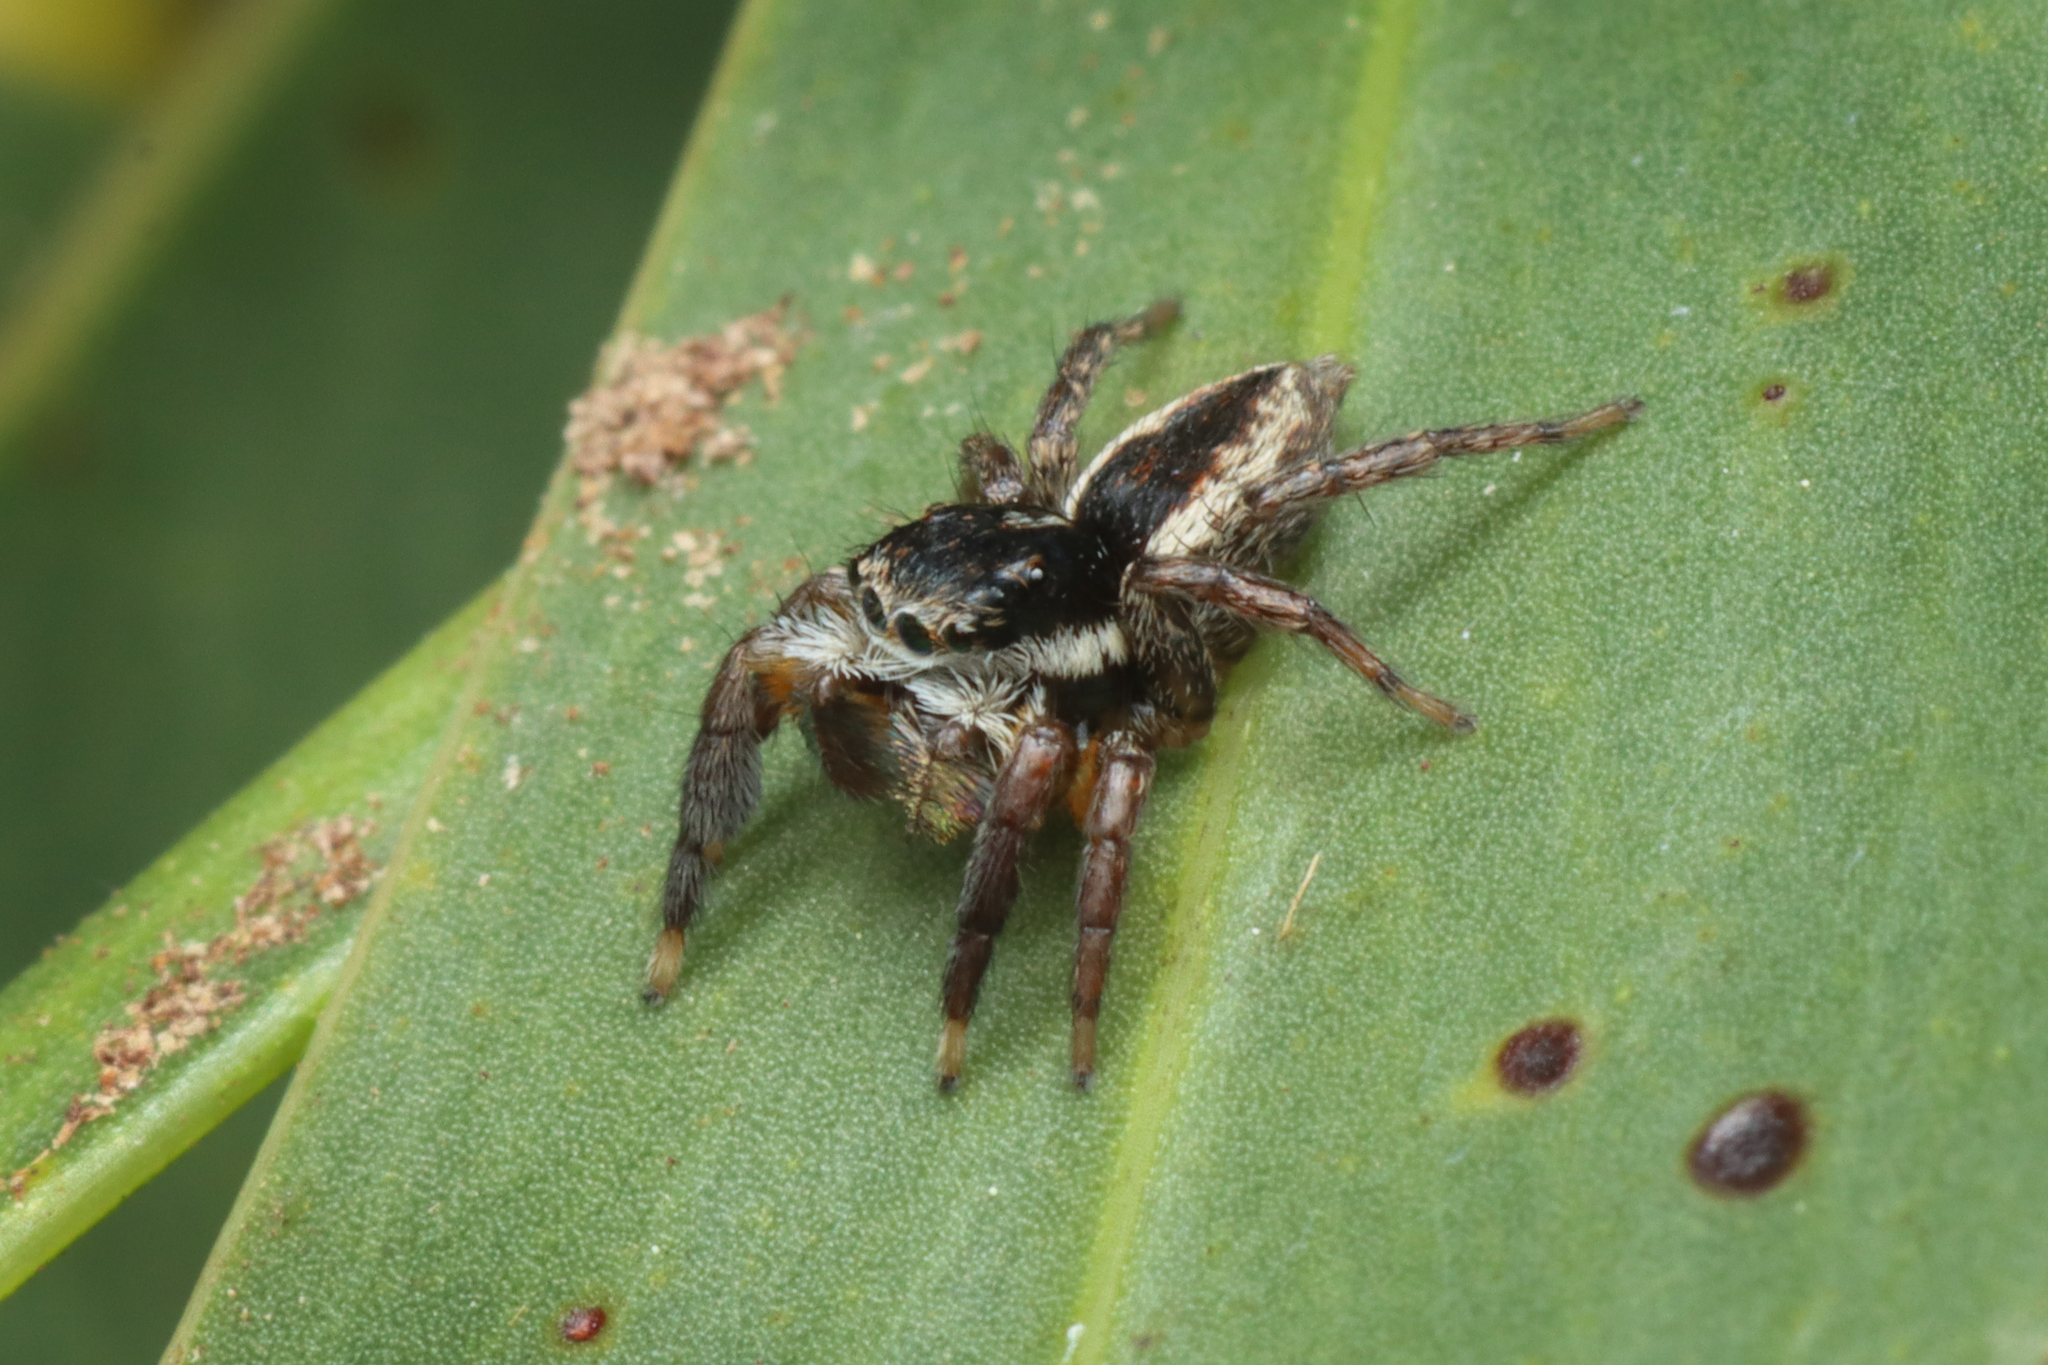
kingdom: Animalia
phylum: Arthropoda
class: Arachnida
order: Araneae
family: Salticidae
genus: Jotus
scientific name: Jotus auripes
